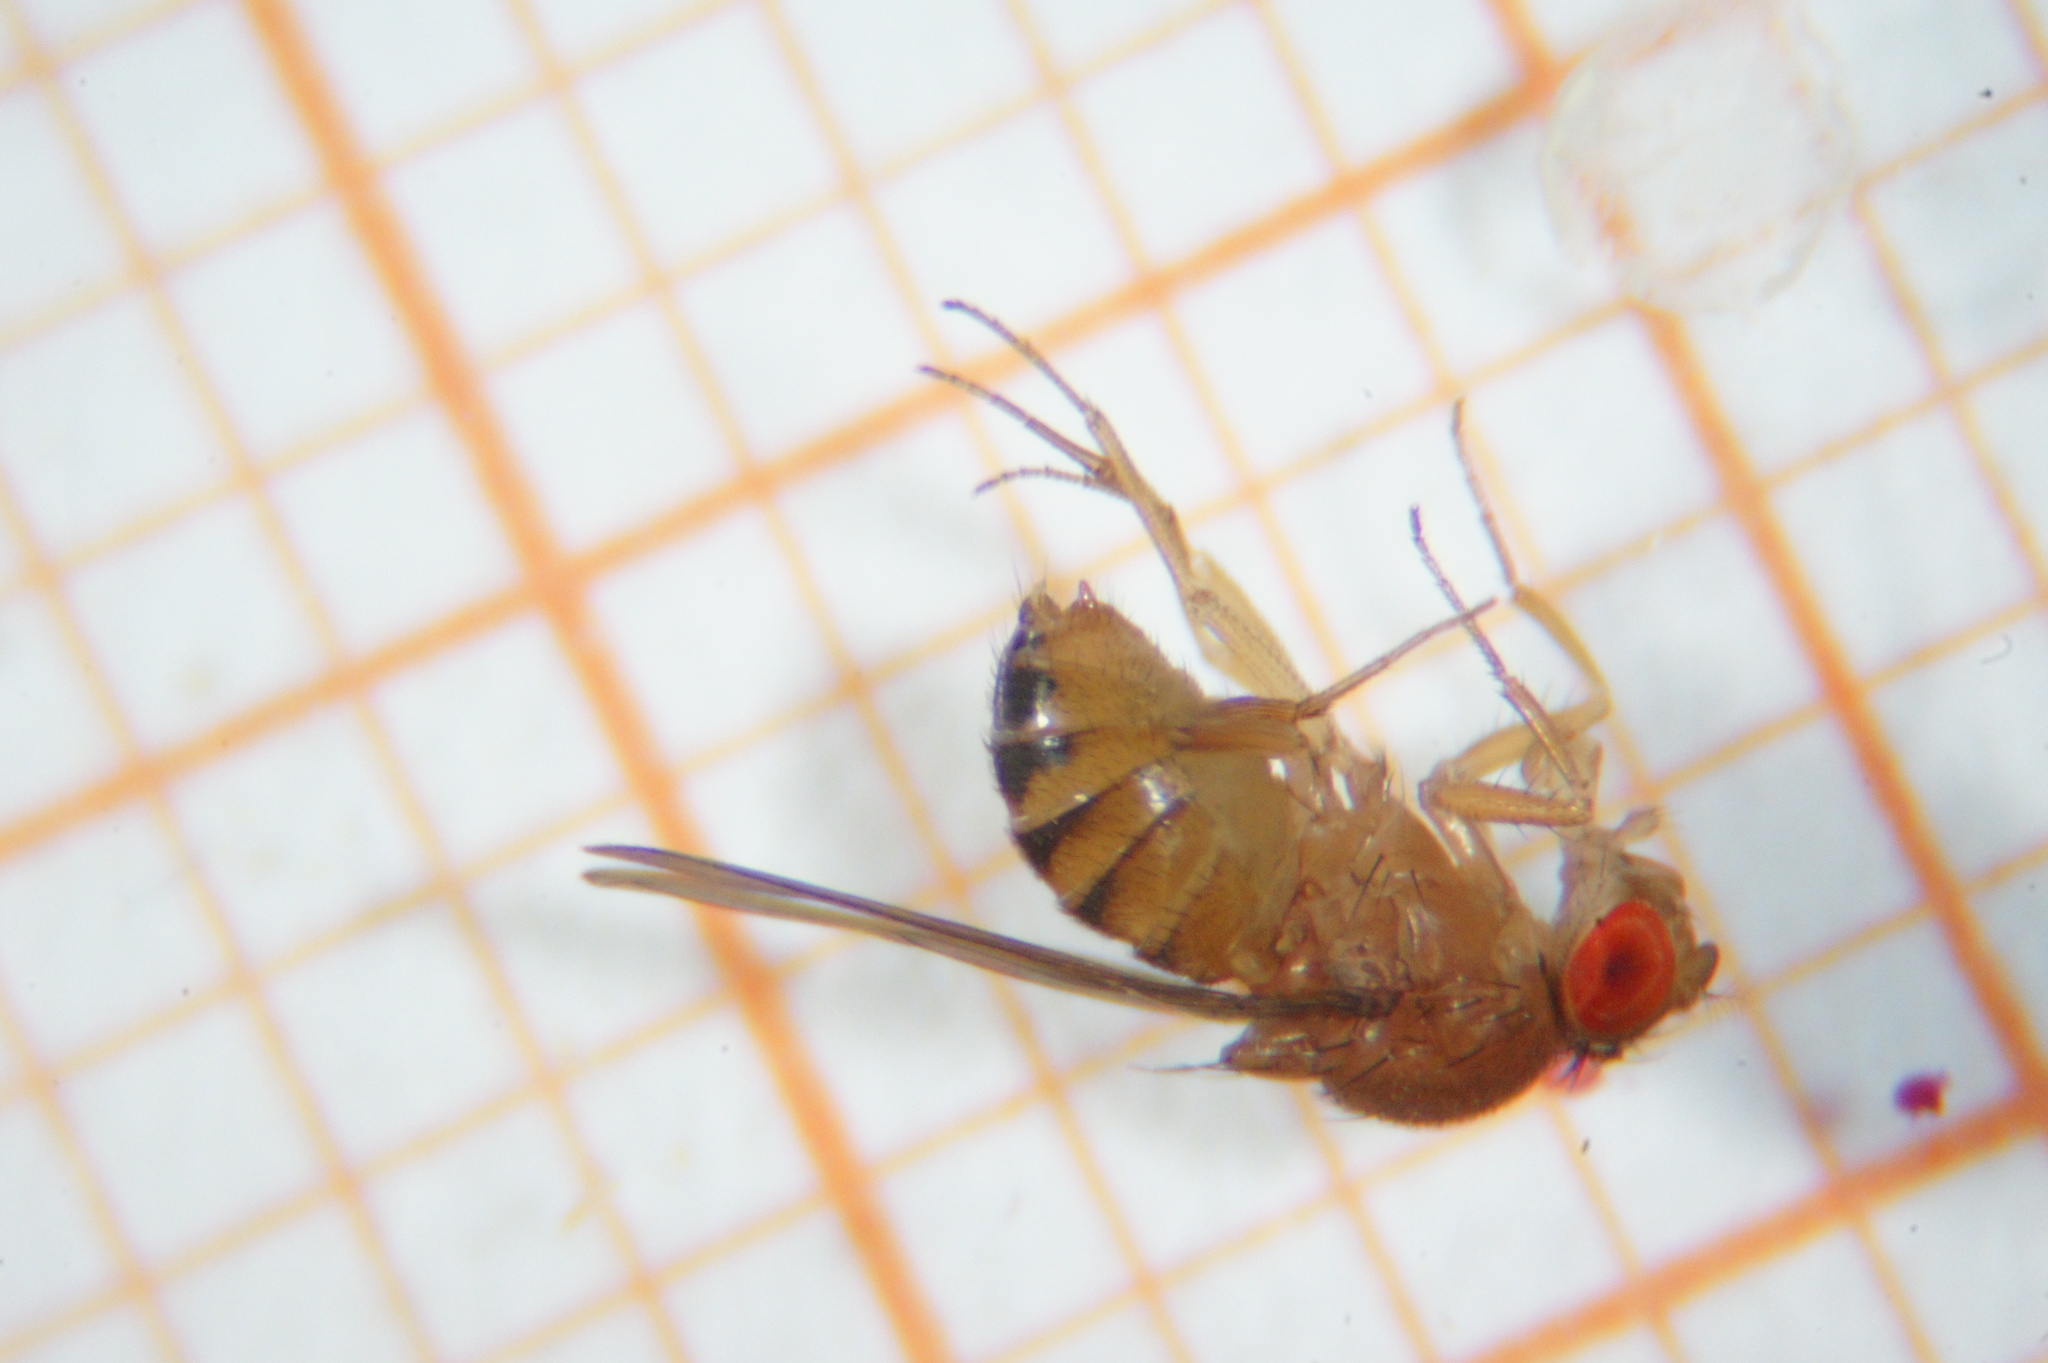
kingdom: Animalia
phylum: Arthropoda
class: Insecta
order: Diptera
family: Drosophilidae
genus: Drosophila
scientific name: Drosophila immigrans
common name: Pomace fly
